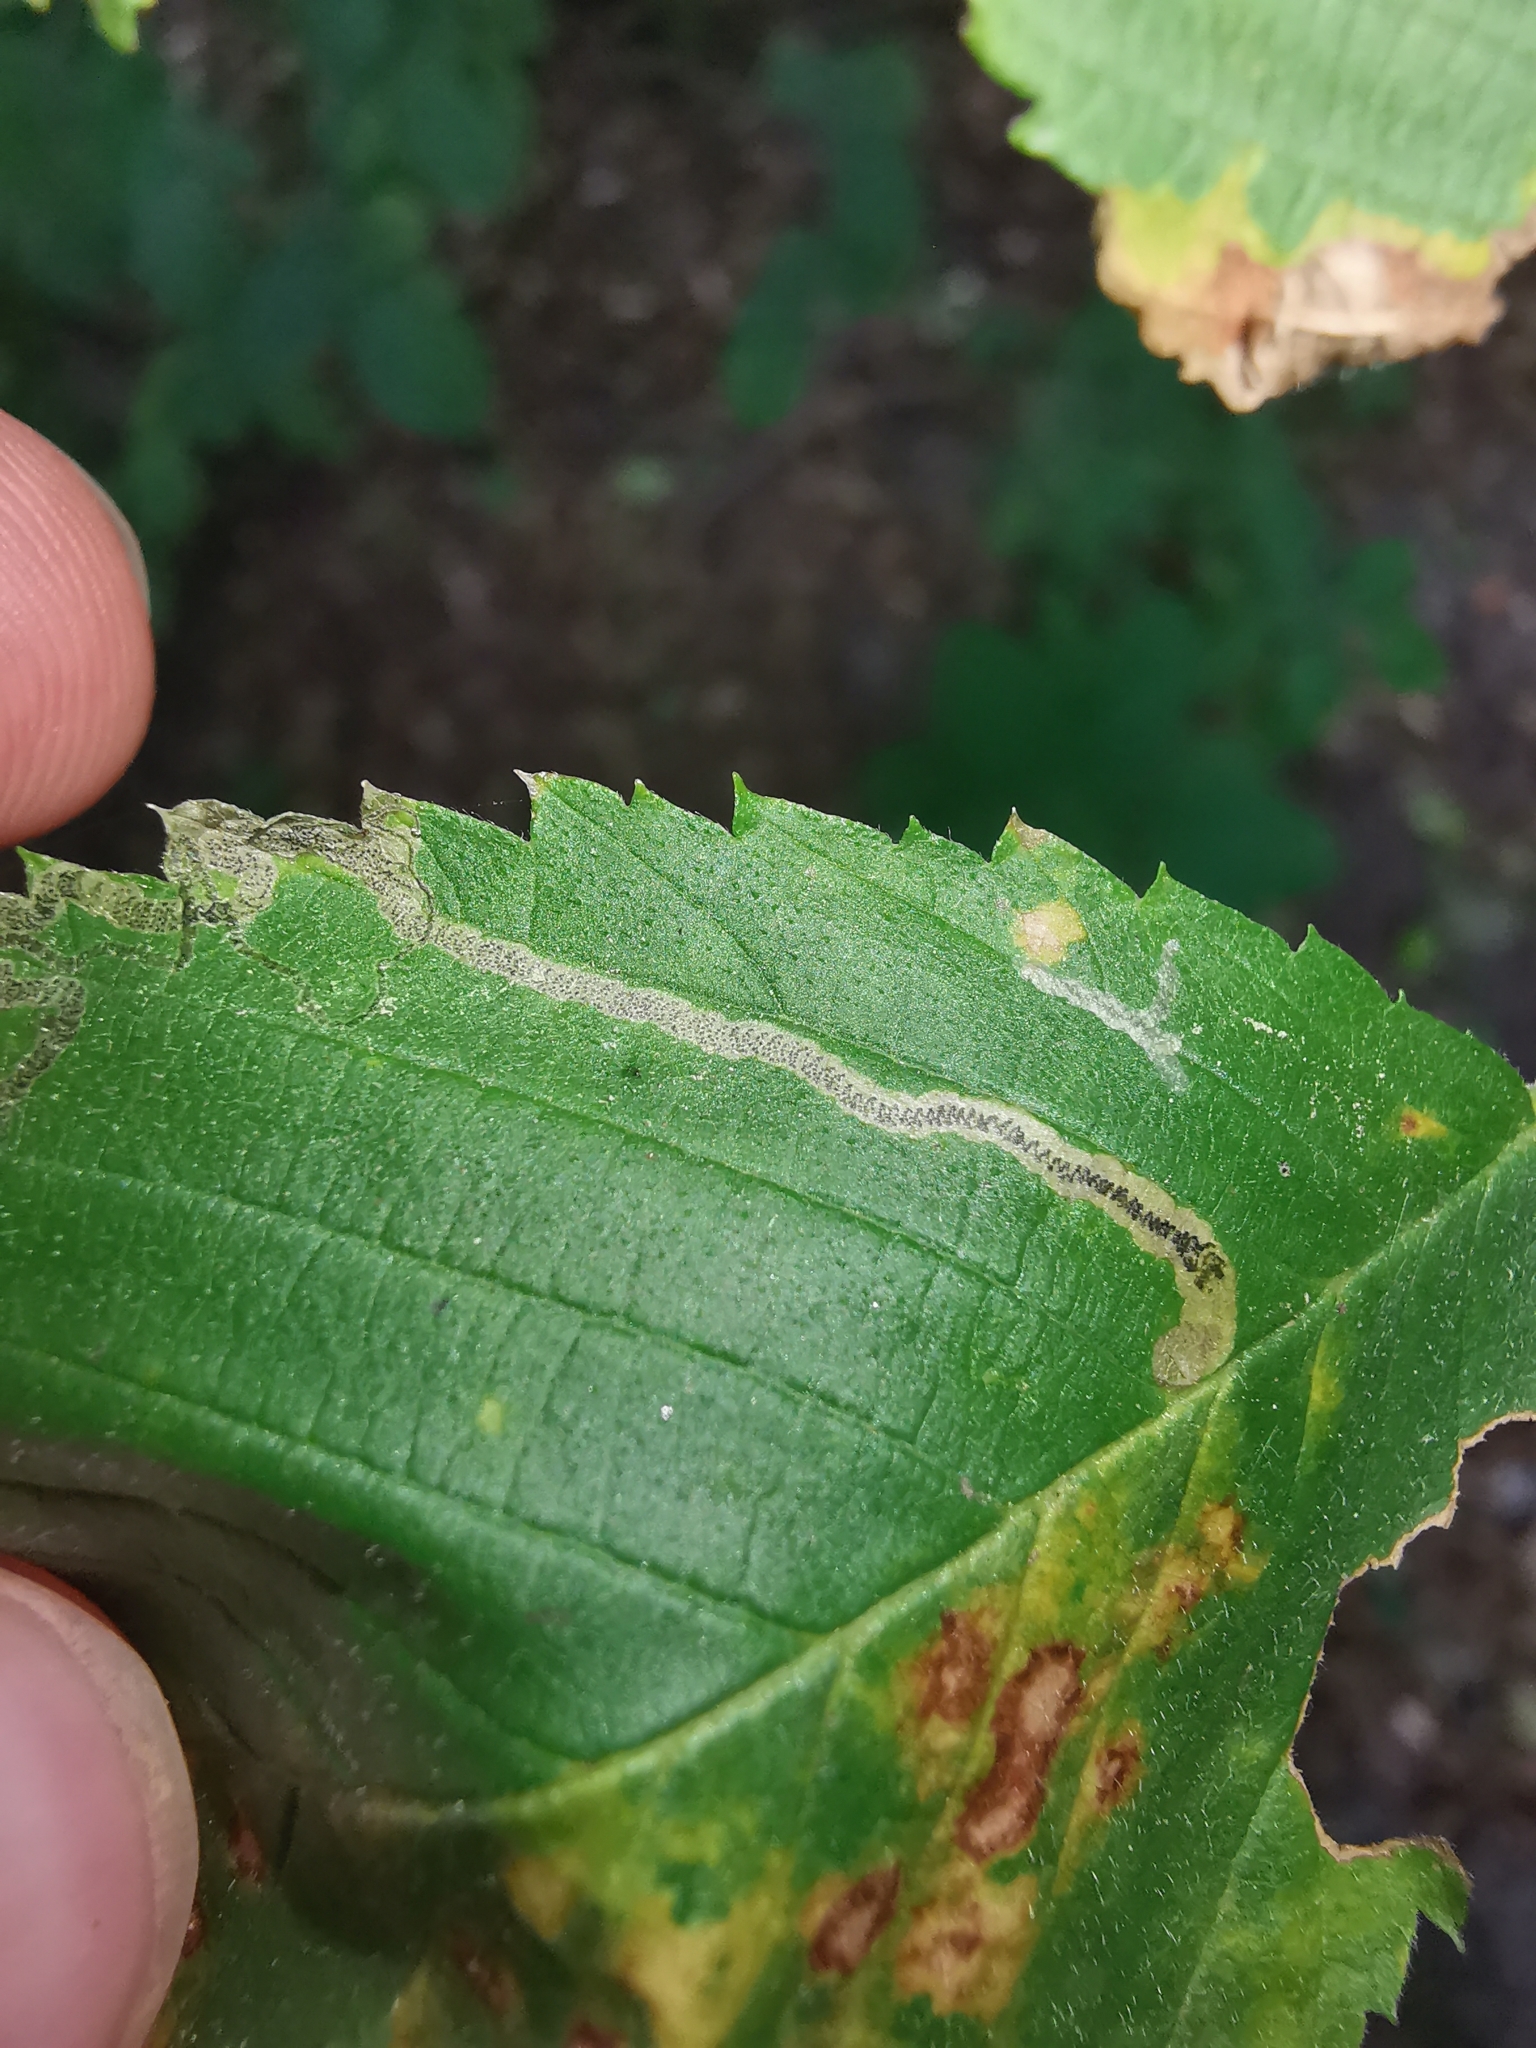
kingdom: Animalia
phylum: Arthropoda
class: Insecta
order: Lepidoptera
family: Nepticulidae
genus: Stigmella
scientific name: Stigmella lemniscella
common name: Red elm pigmy
